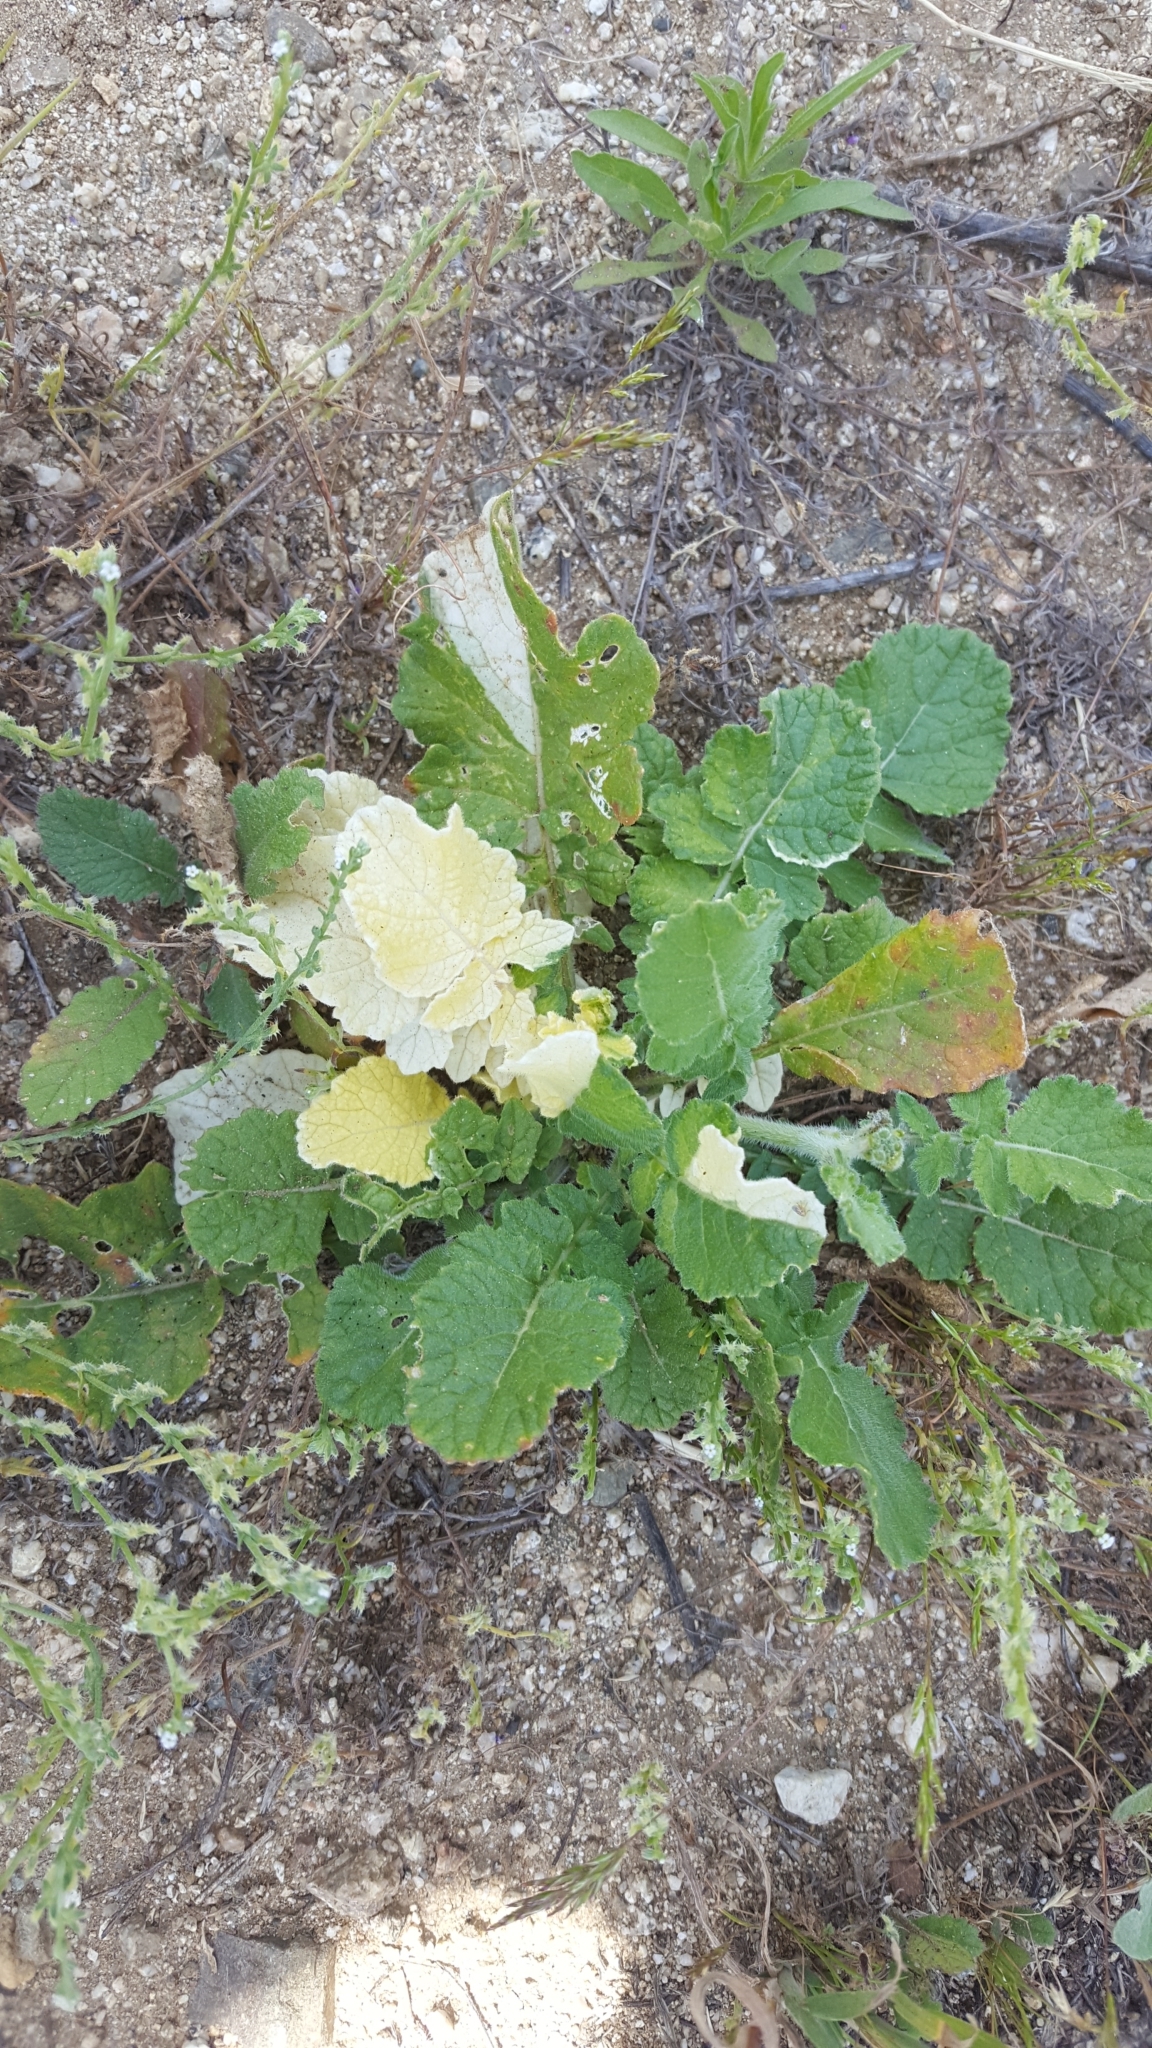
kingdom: Plantae
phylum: Tracheophyta
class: Magnoliopsida
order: Brassicales
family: Brassicaceae
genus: Hirschfeldia
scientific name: Hirschfeldia incana
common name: Hoary mustard
